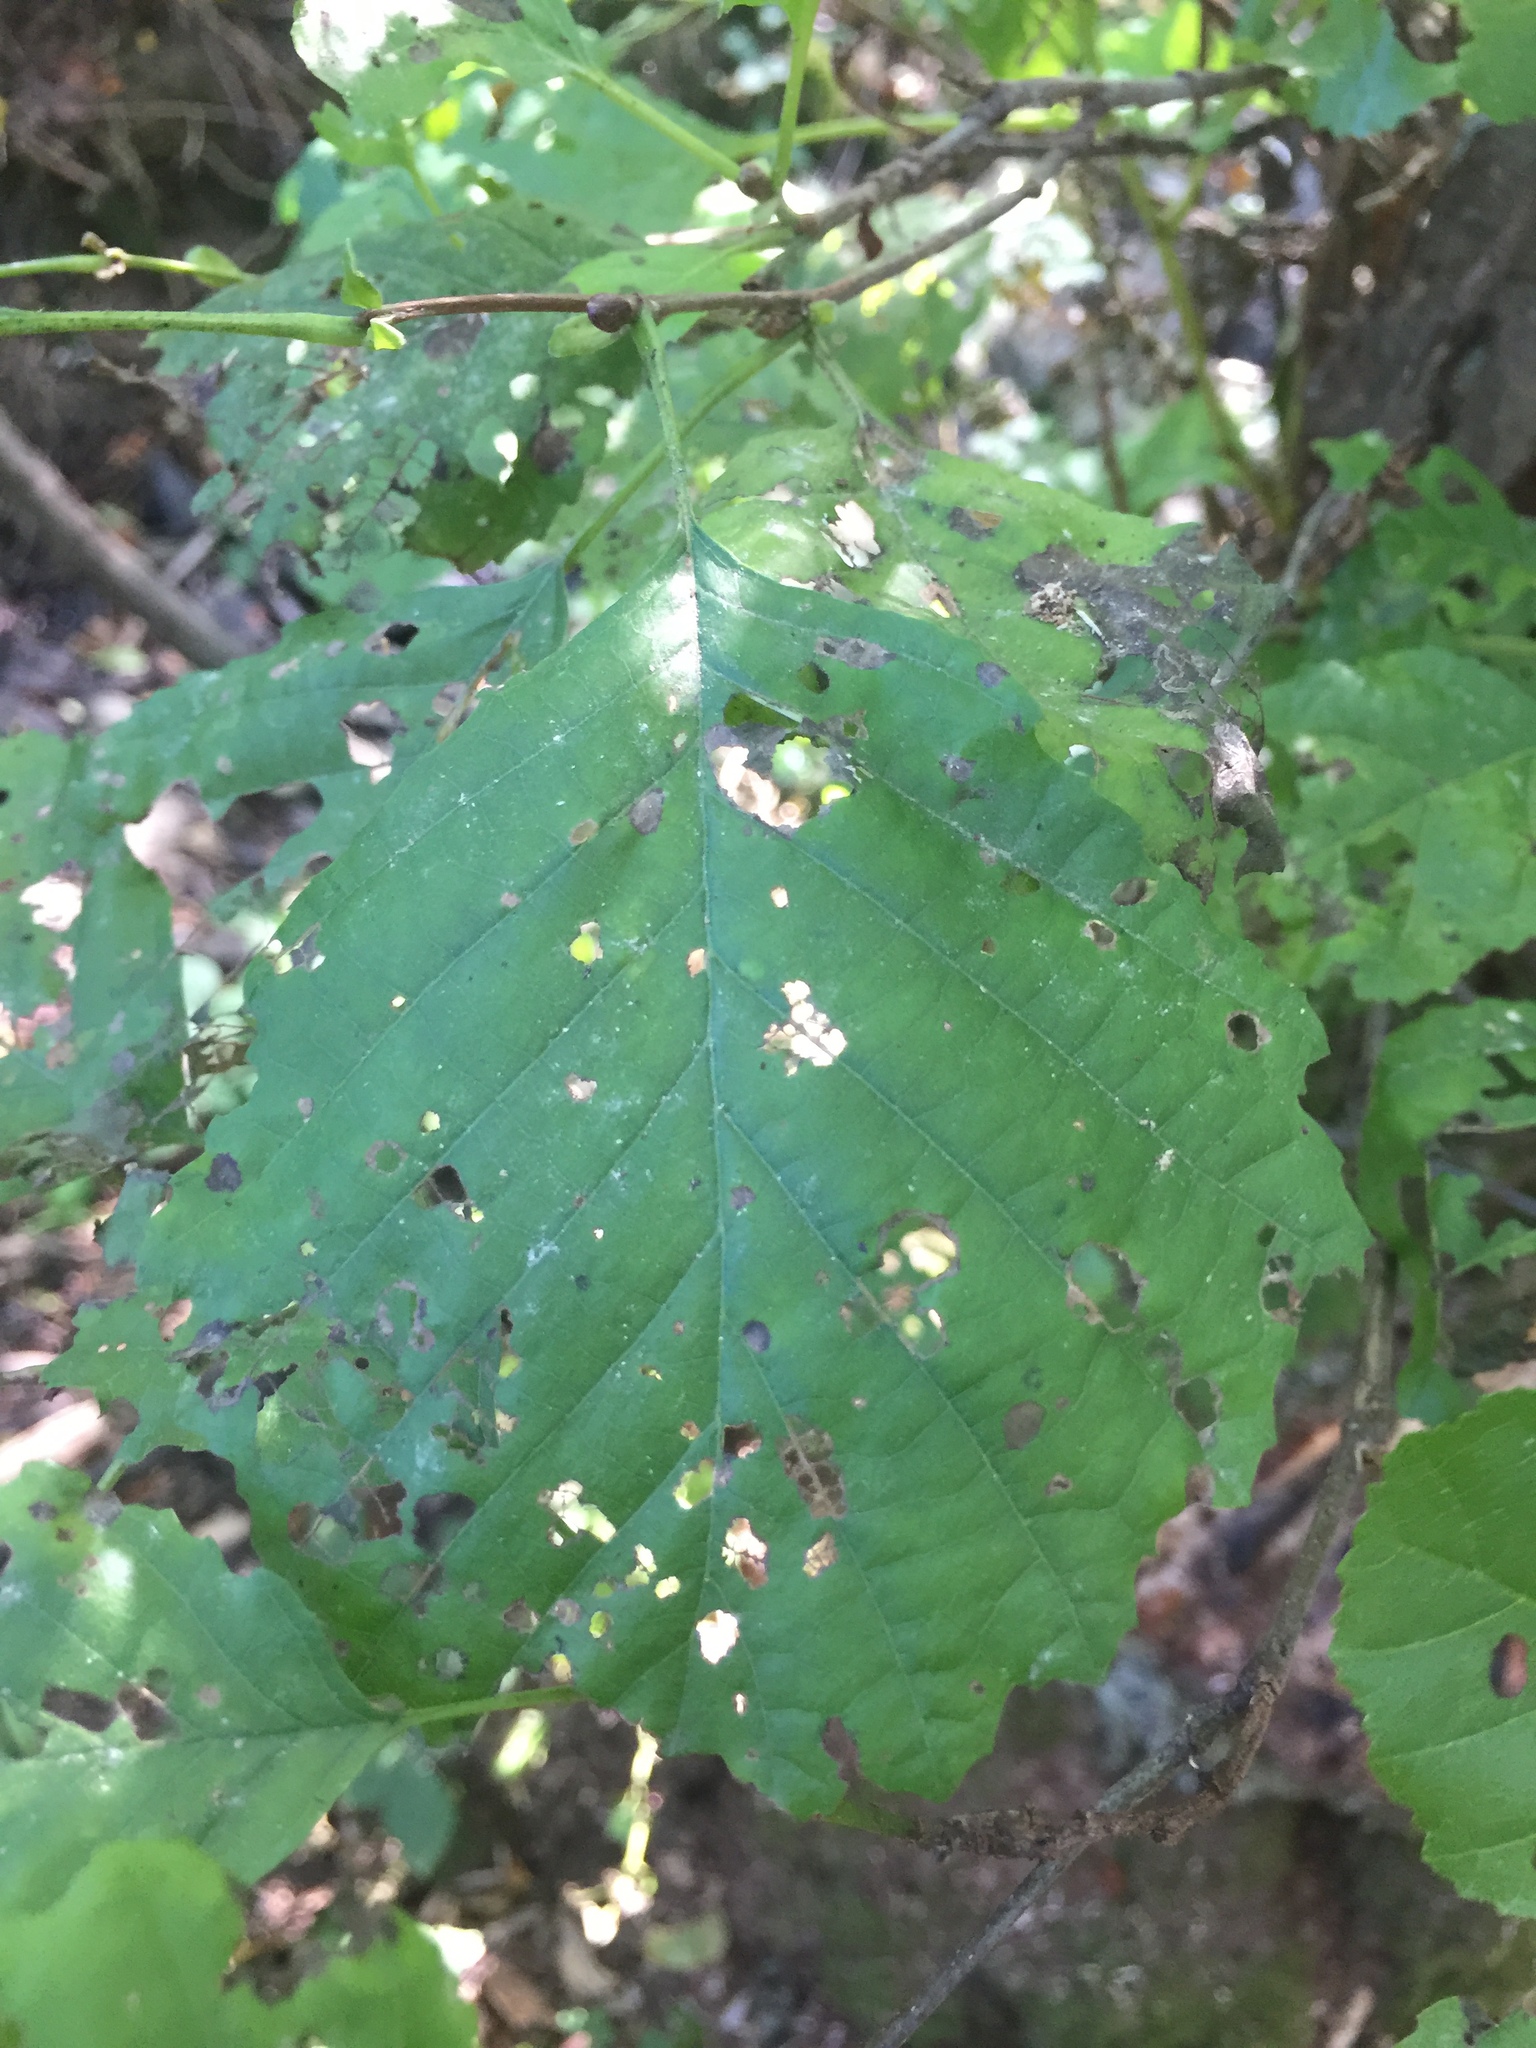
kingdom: Animalia
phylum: Arthropoda
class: Insecta
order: Coleoptera
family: Chrysomelidae
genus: Agelastica
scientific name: Agelastica alni
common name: Alder leaf beetle
